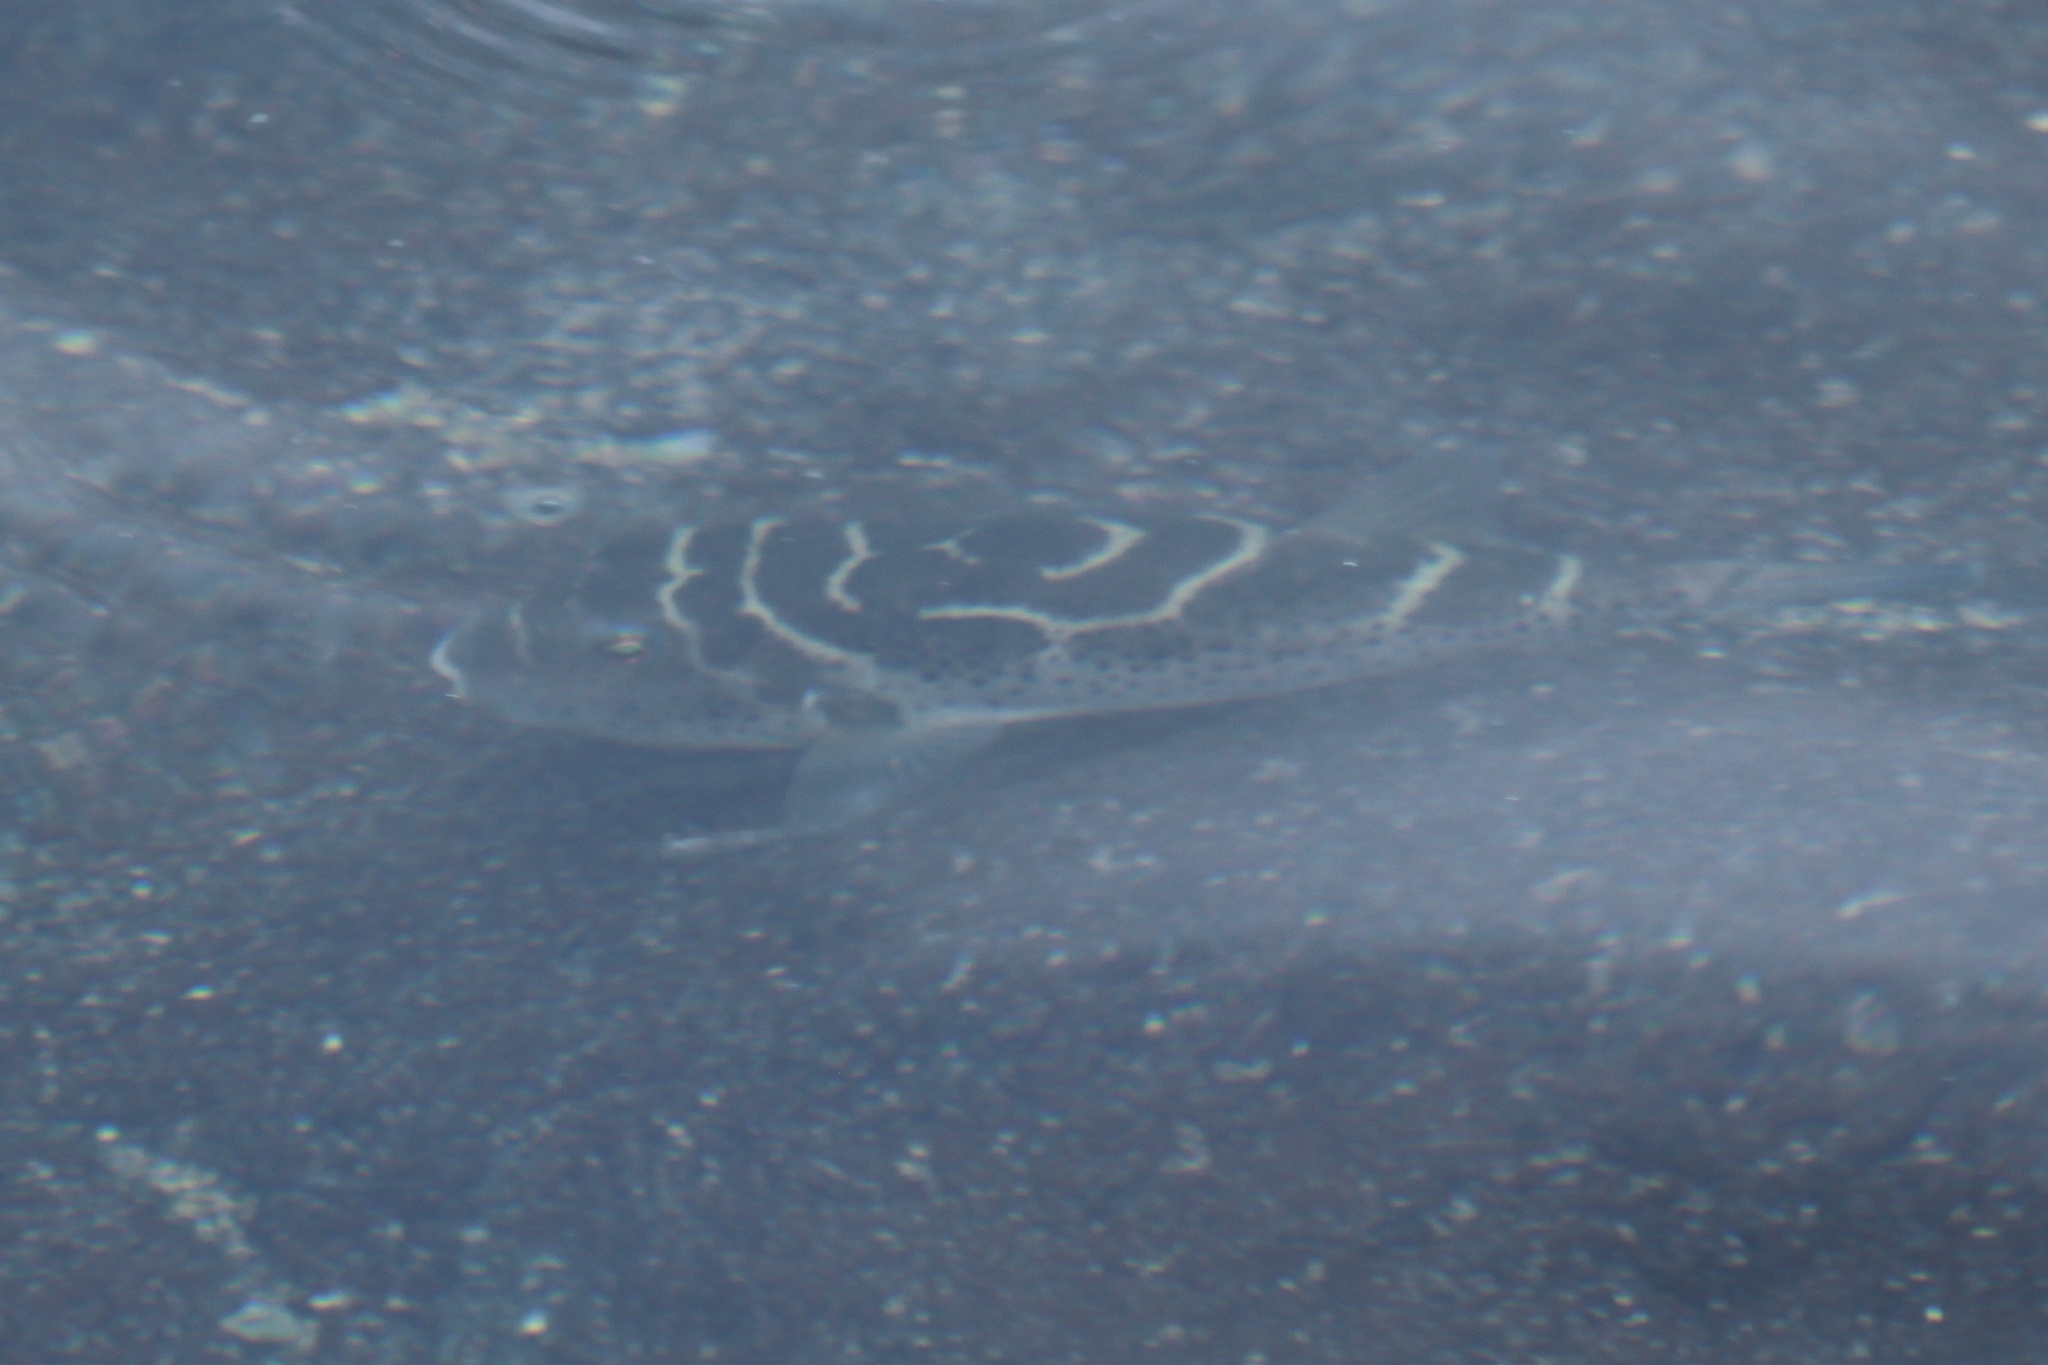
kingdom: Animalia
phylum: Chordata
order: Tetraodontiformes
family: Tetraodontidae
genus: Sphoeroides
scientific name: Sphoeroides annulatus
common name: Bullseye puffer
